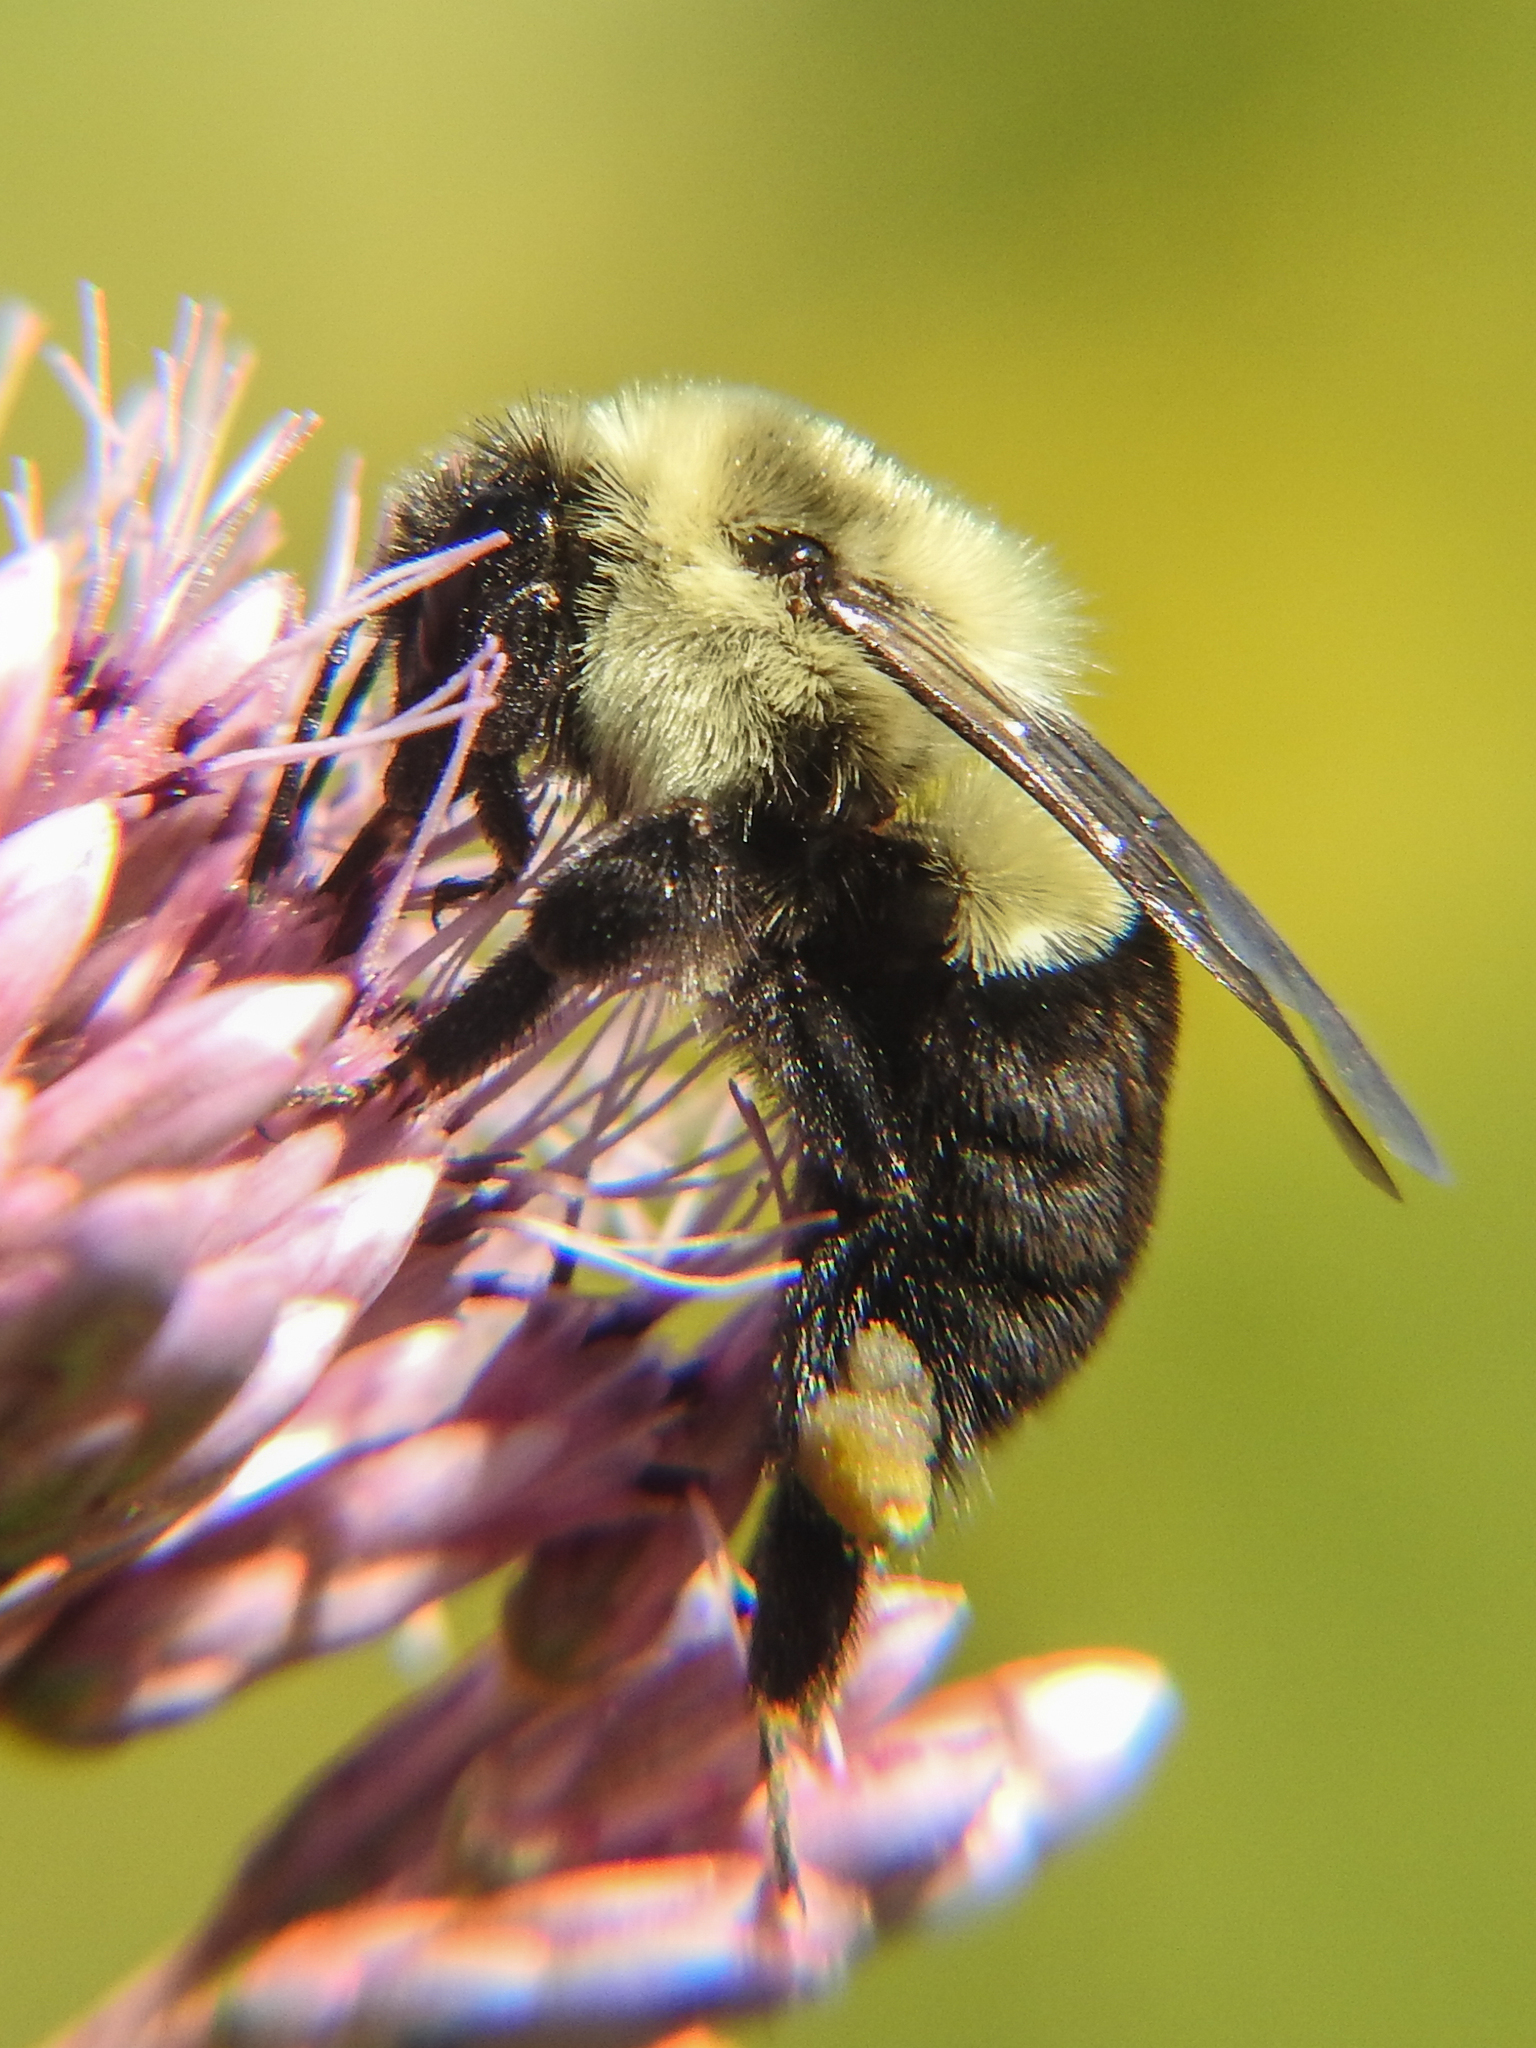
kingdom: Animalia
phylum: Arthropoda
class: Insecta
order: Hymenoptera
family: Apidae
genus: Bombus
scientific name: Bombus impatiens
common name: Common eastern bumble bee
